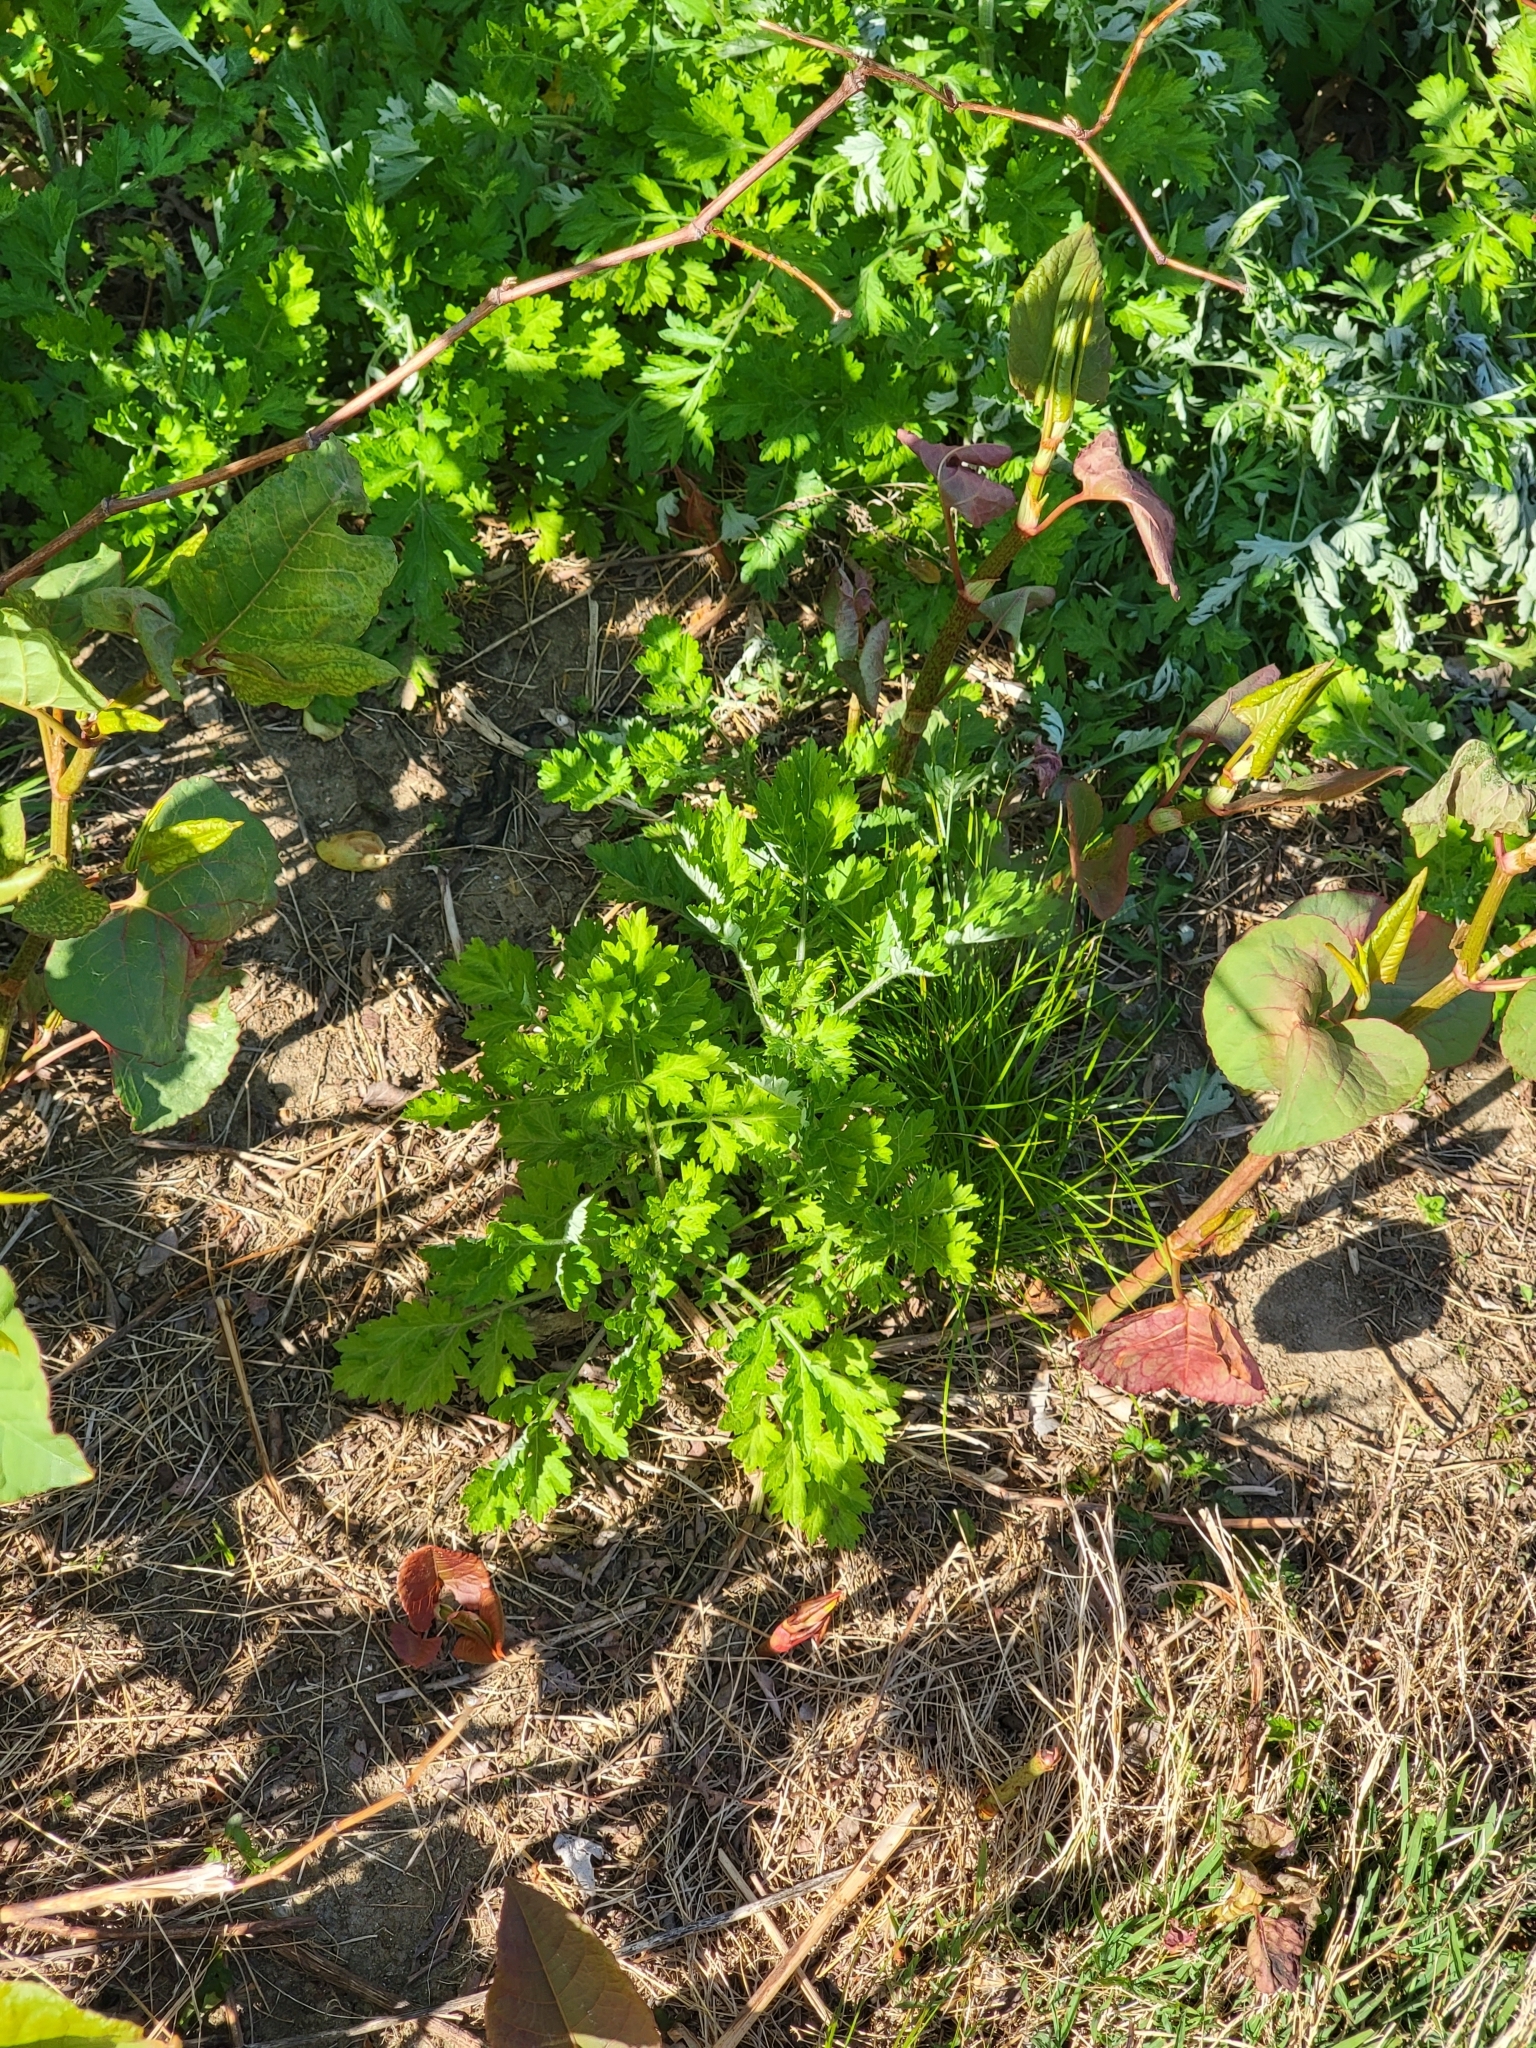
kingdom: Plantae
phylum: Tracheophyta
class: Magnoliopsida
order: Asterales
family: Asteraceae
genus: Artemisia
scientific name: Artemisia vulgaris
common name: Mugwort
